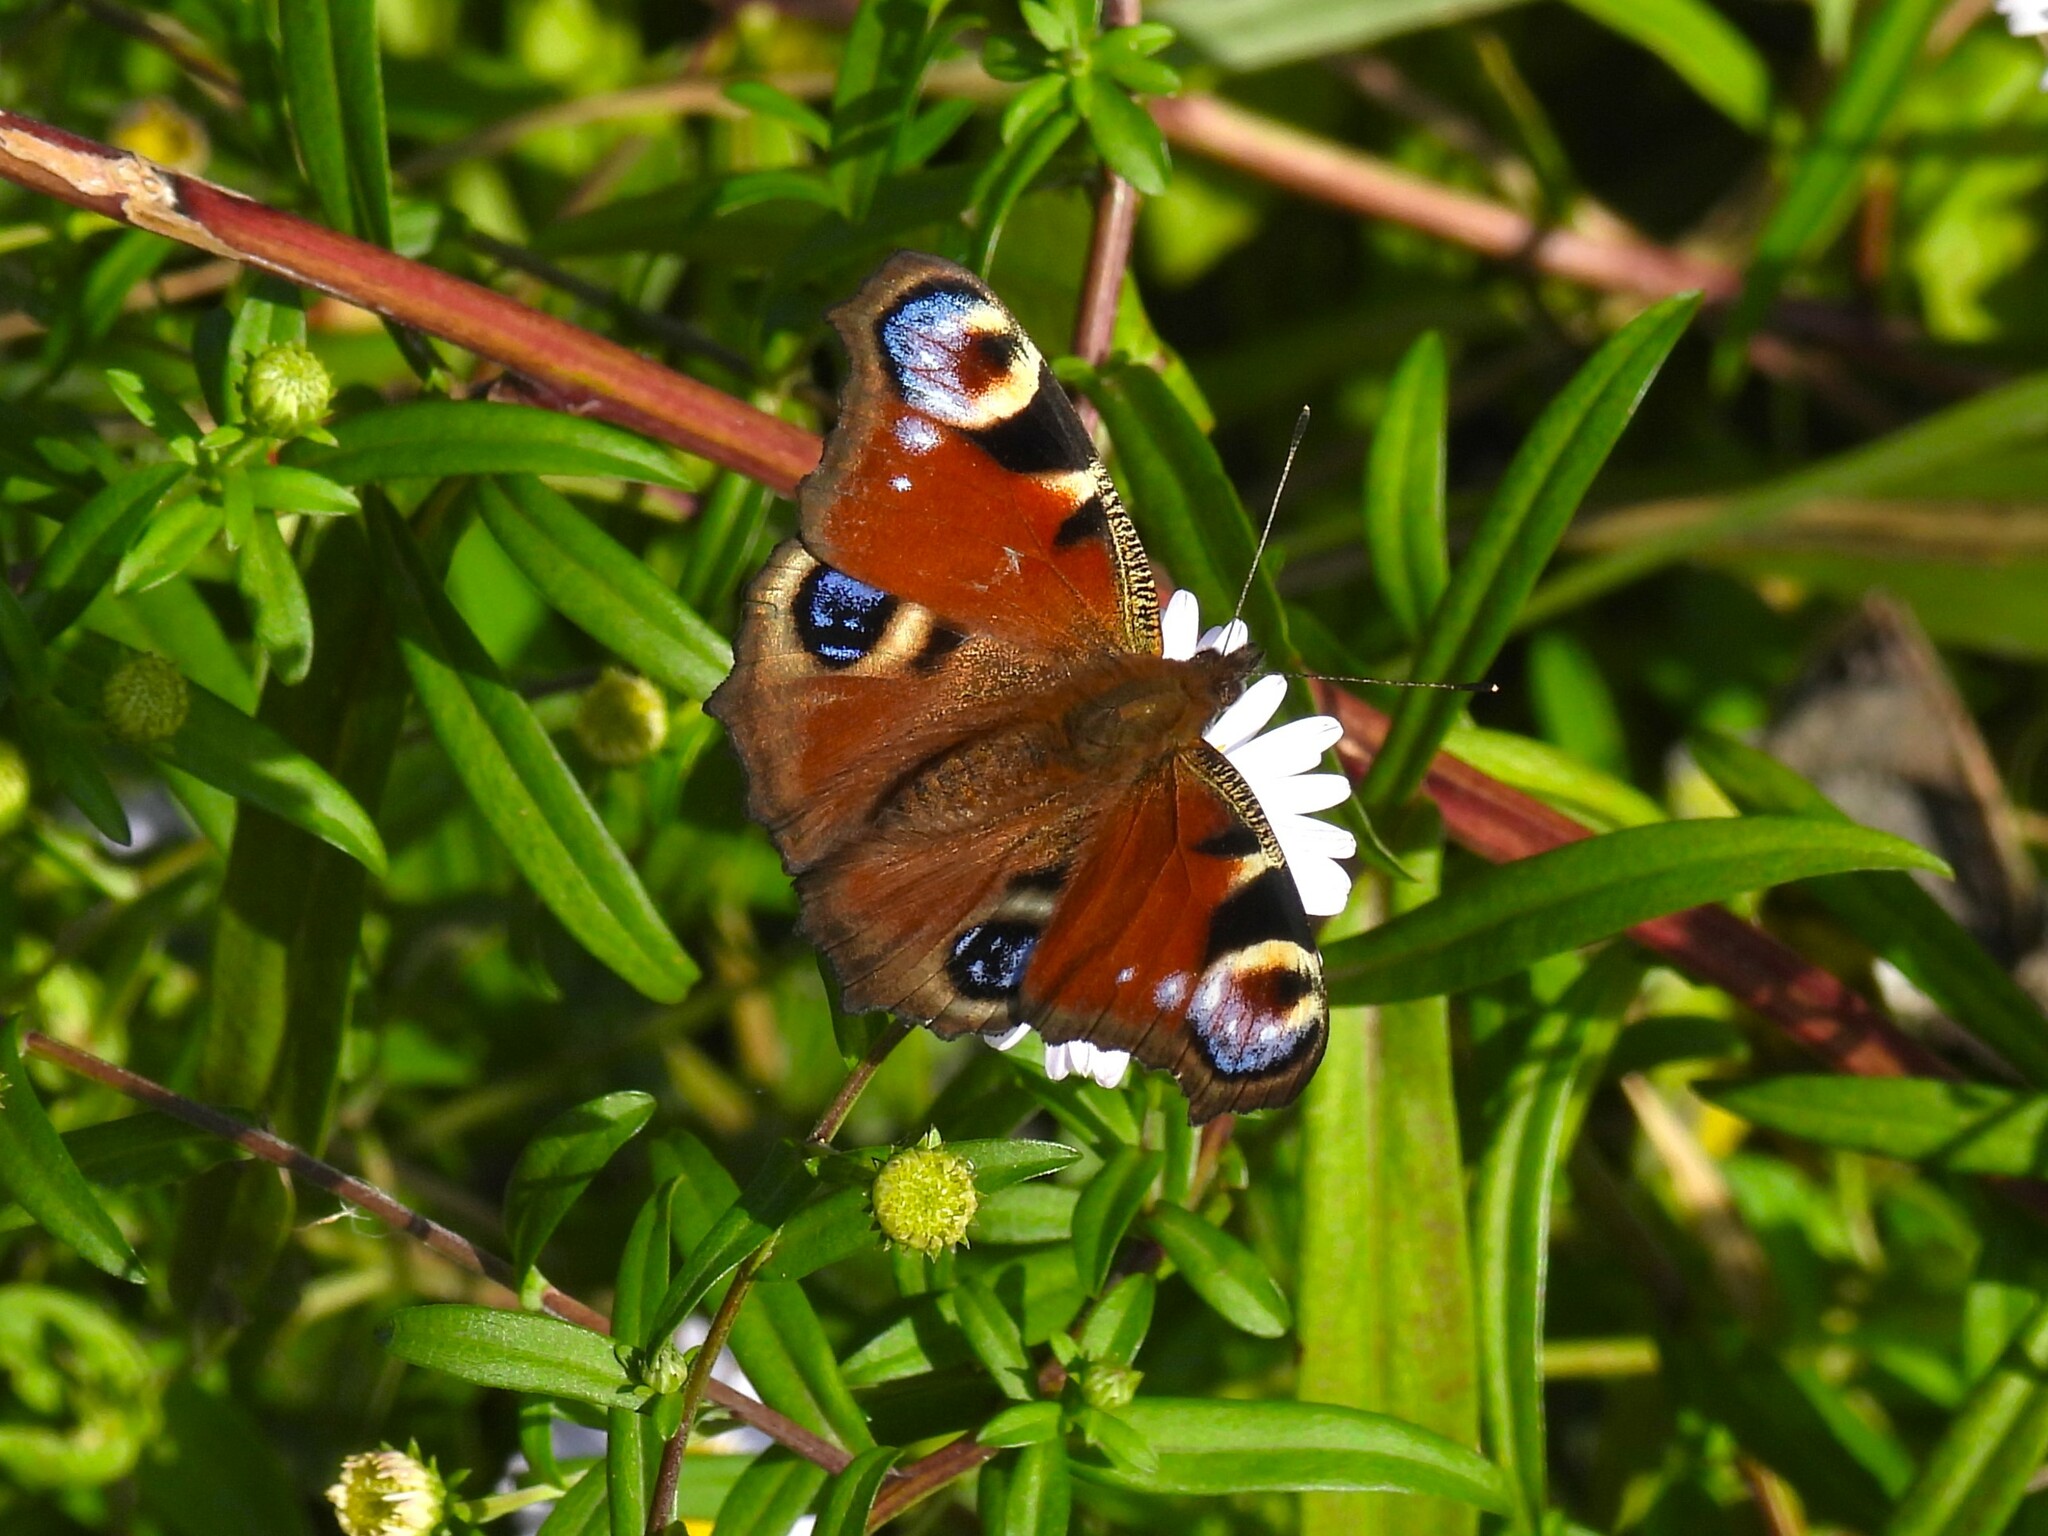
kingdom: Animalia
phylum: Arthropoda
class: Insecta
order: Lepidoptera
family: Nymphalidae
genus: Aglais
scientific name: Aglais io
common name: Peacock
